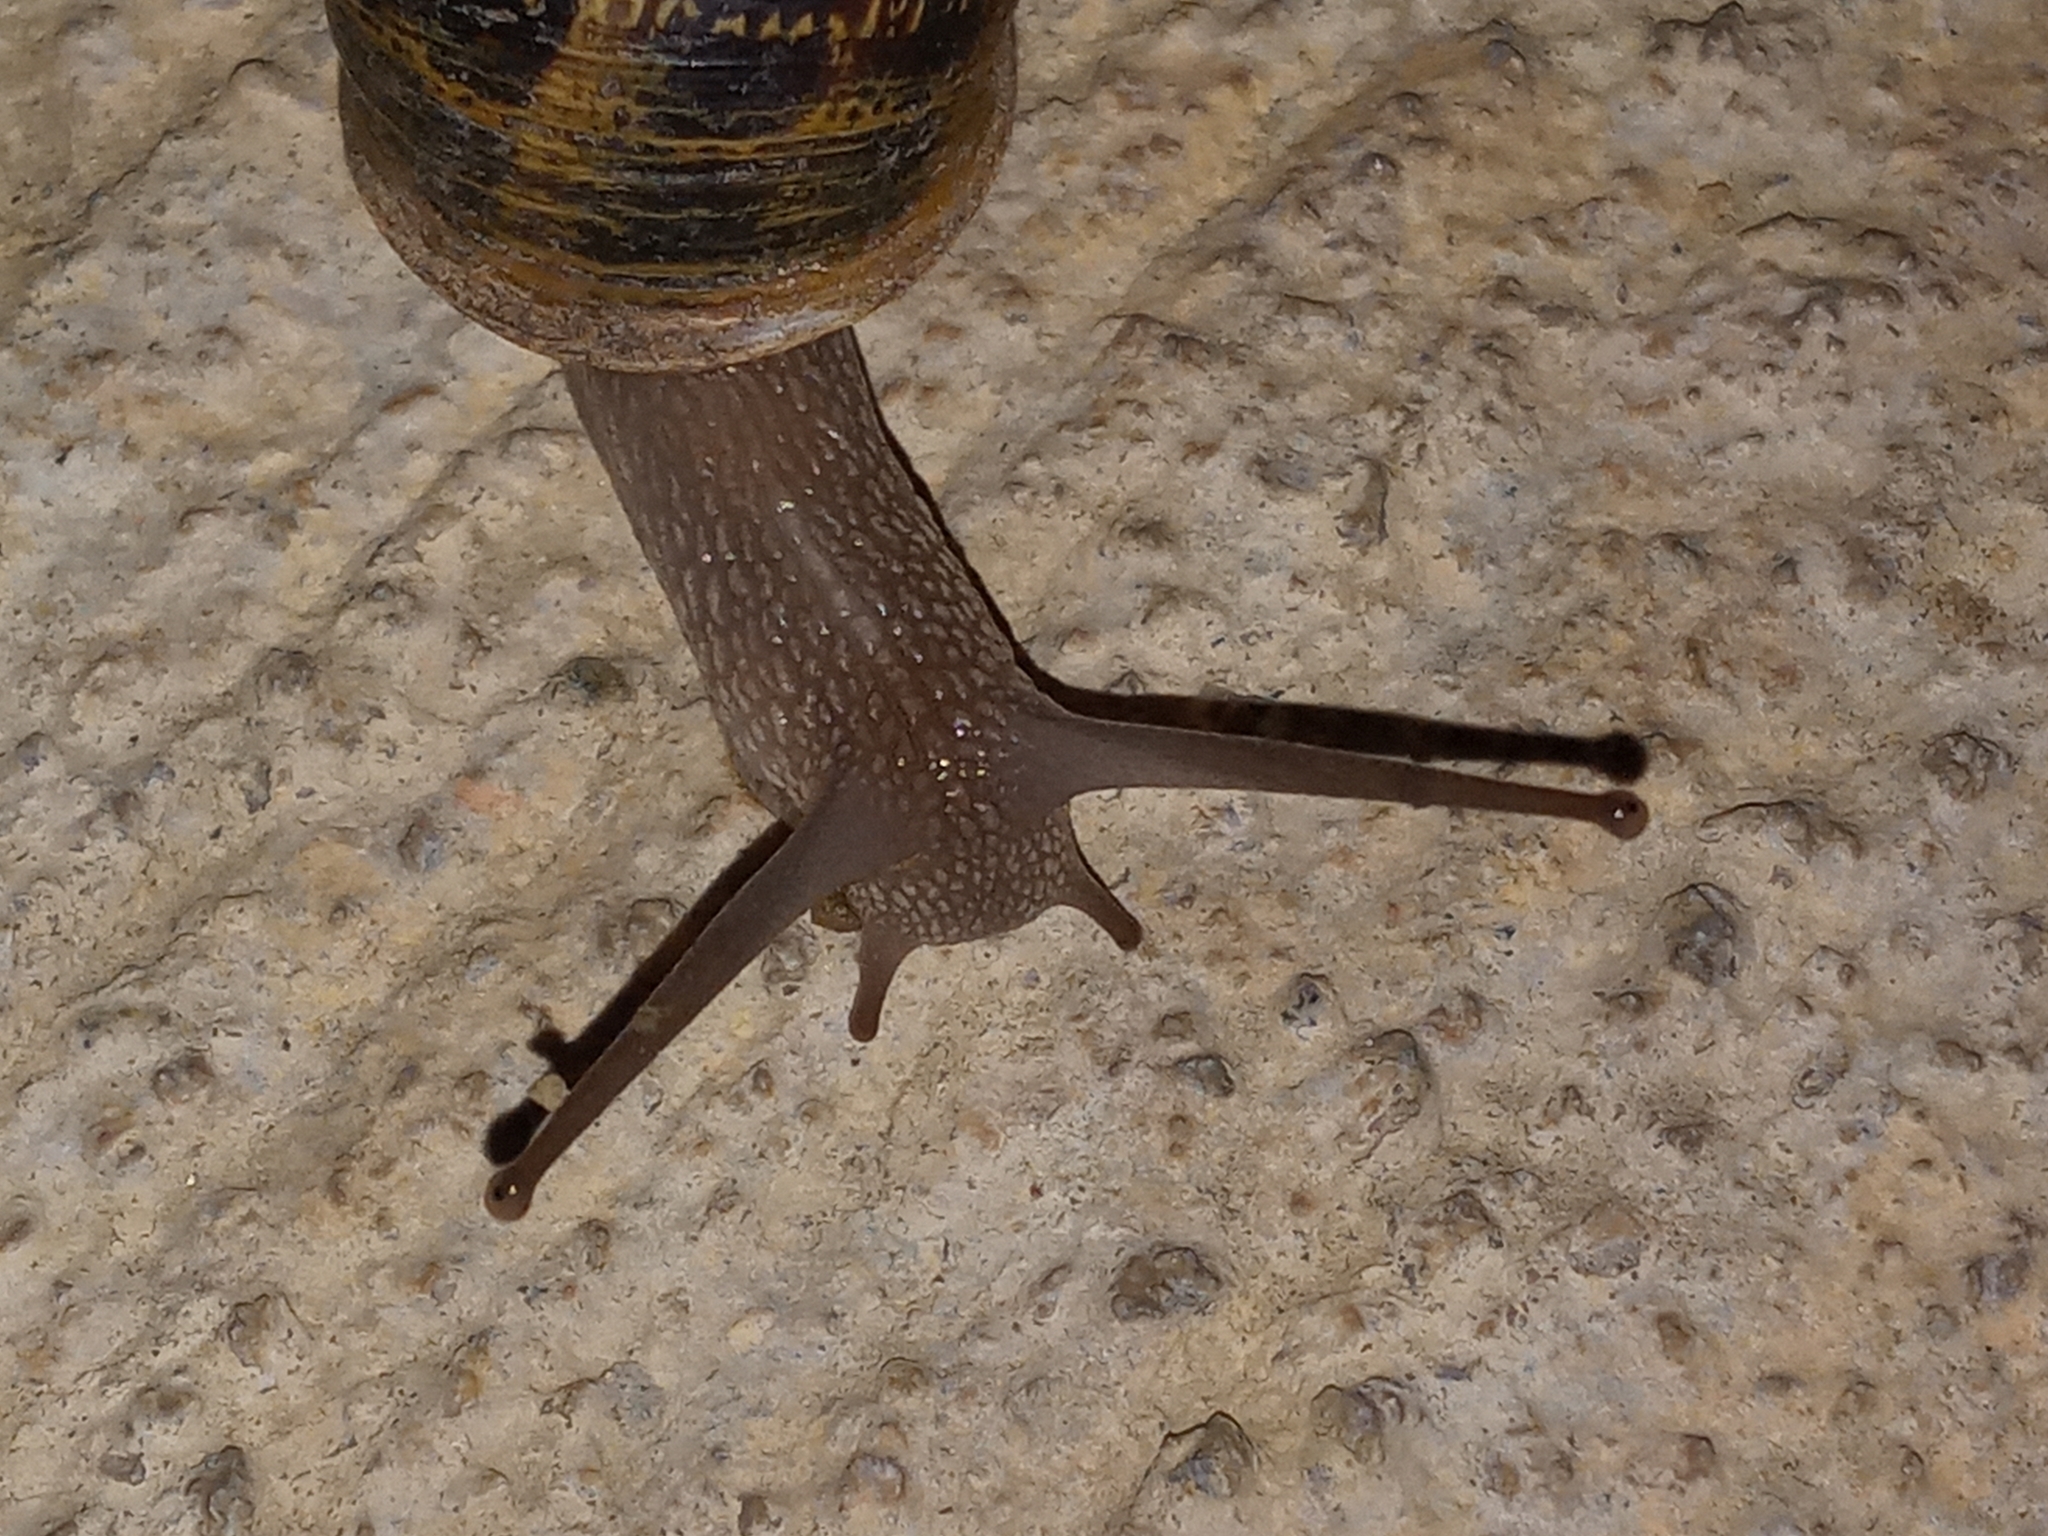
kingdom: Animalia
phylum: Mollusca
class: Gastropoda
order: Stylommatophora
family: Helicidae
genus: Cornu
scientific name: Cornu aspersum
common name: Brown garden snail
